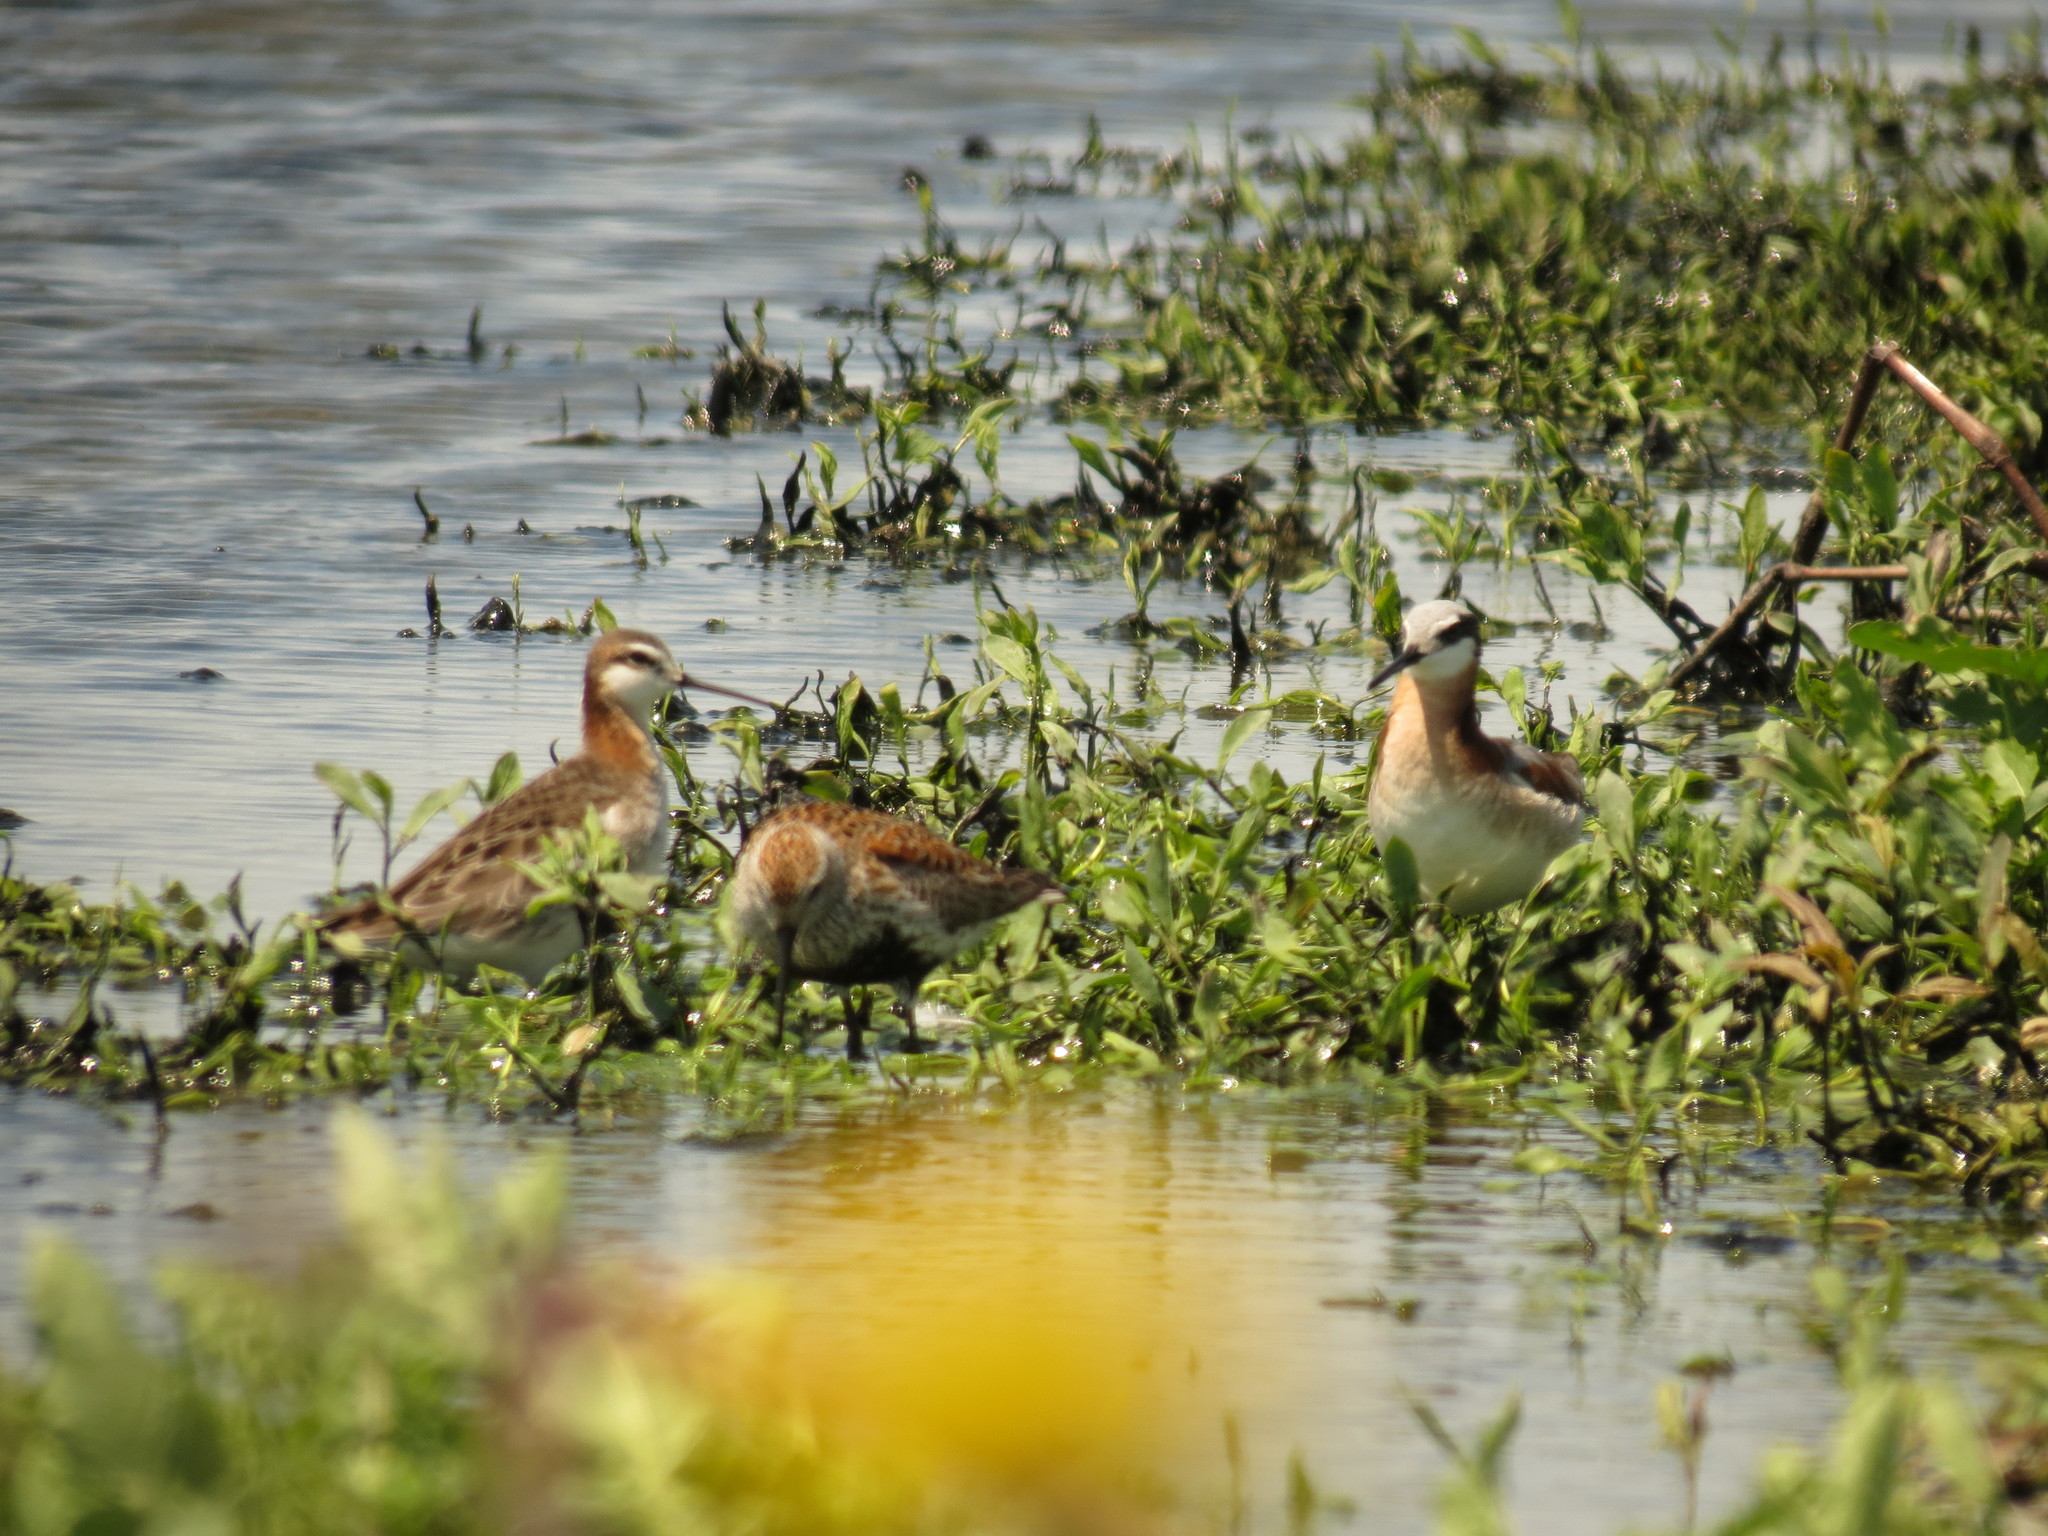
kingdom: Animalia
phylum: Chordata
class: Aves
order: Charadriiformes
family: Scolopacidae
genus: Phalaropus
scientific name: Phalaropus tricolor
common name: Wilson's phalarope
